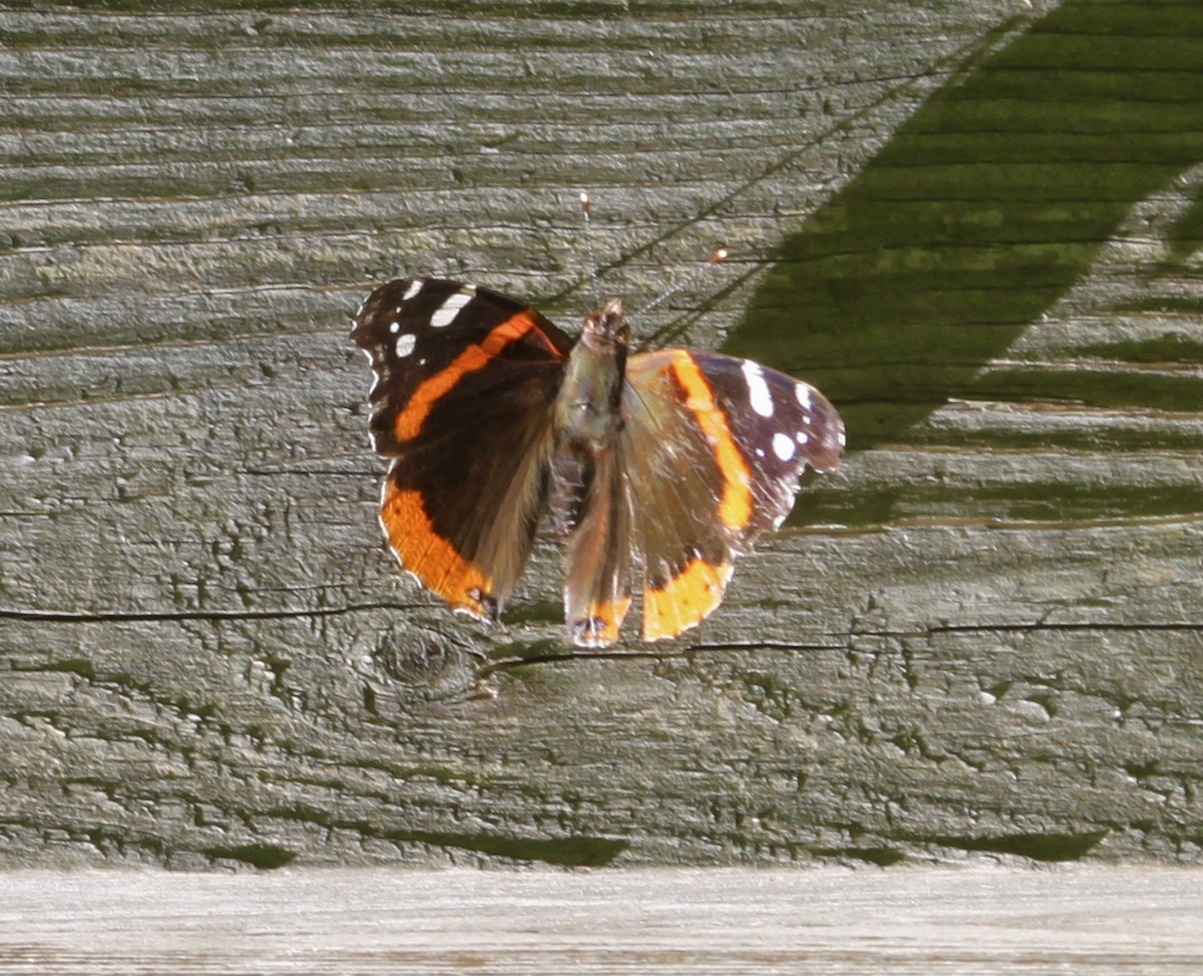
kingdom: Animalia
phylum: Arthropoda
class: Insecta
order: Lepidoptera
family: Nymphalidae
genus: Vanessa
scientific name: Vanessa atalanta
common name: Red admiral
